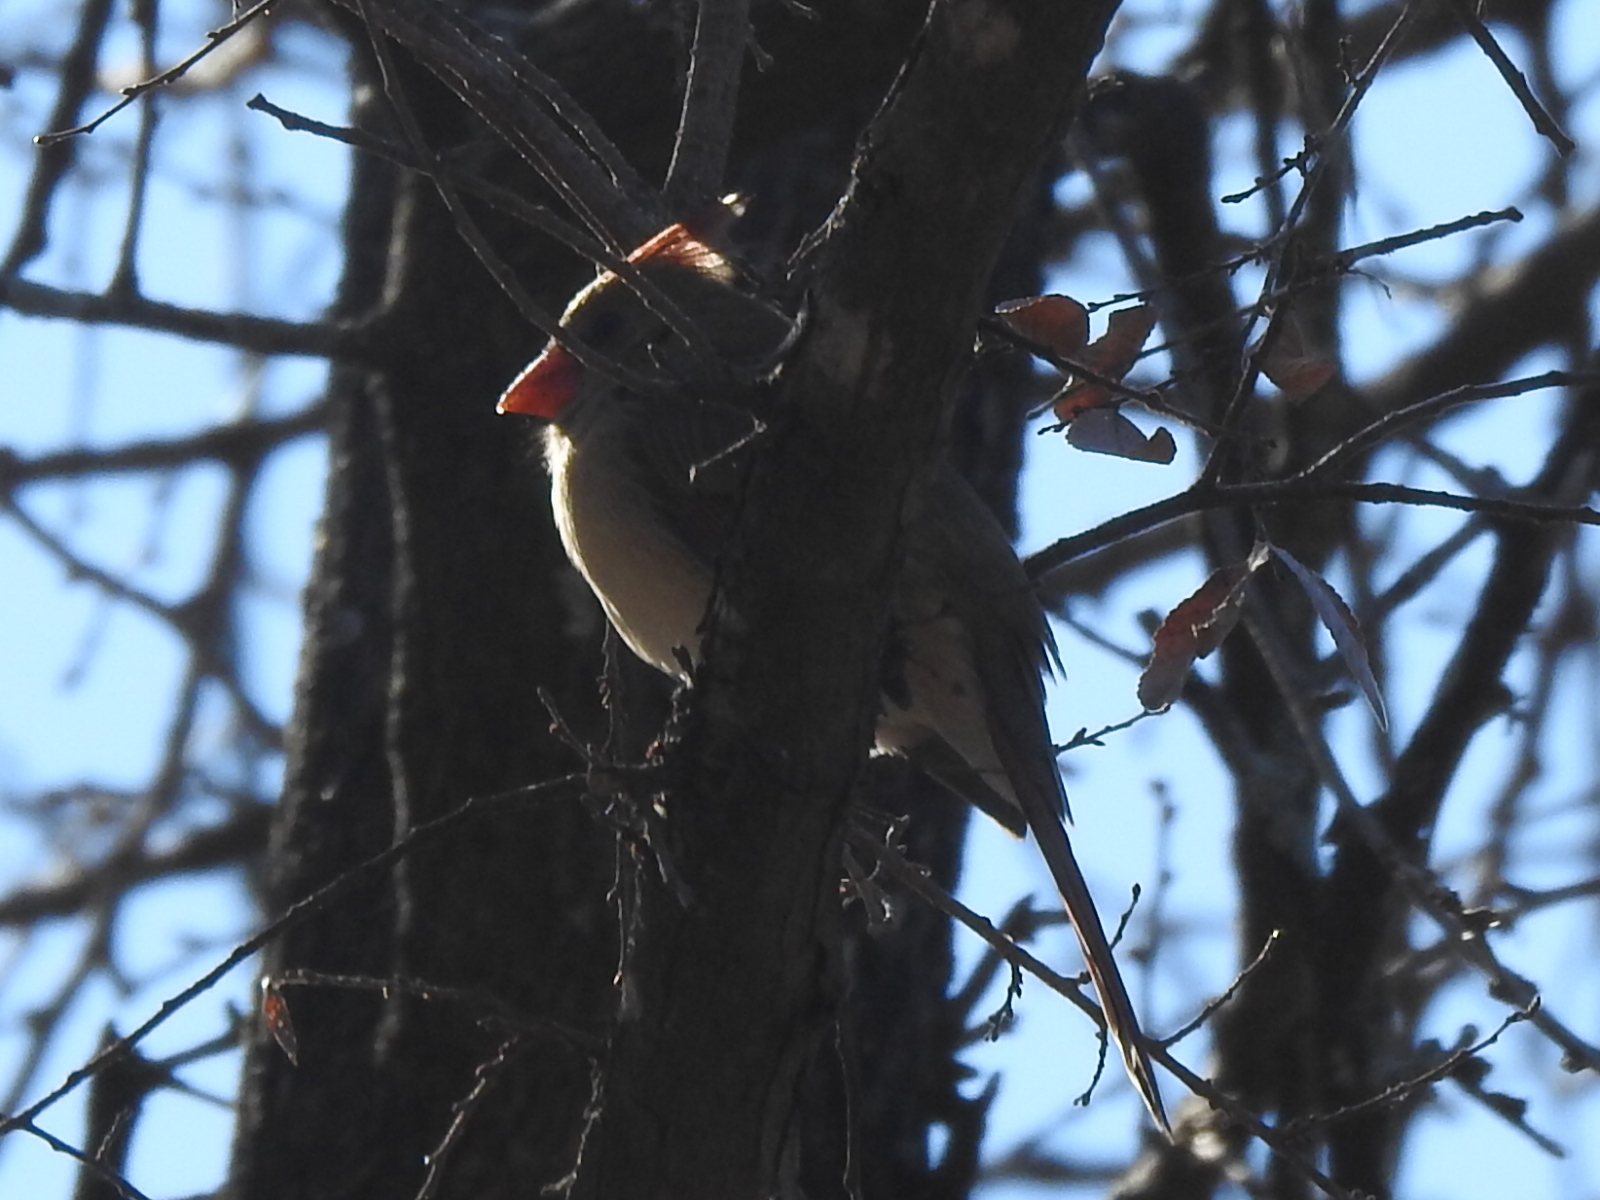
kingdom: Animalia
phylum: Chordata
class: Aves
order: Passeriformes
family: Cardinalidae
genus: Cardinalis
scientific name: Cardinalis cardinalis
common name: Northern cardinal
